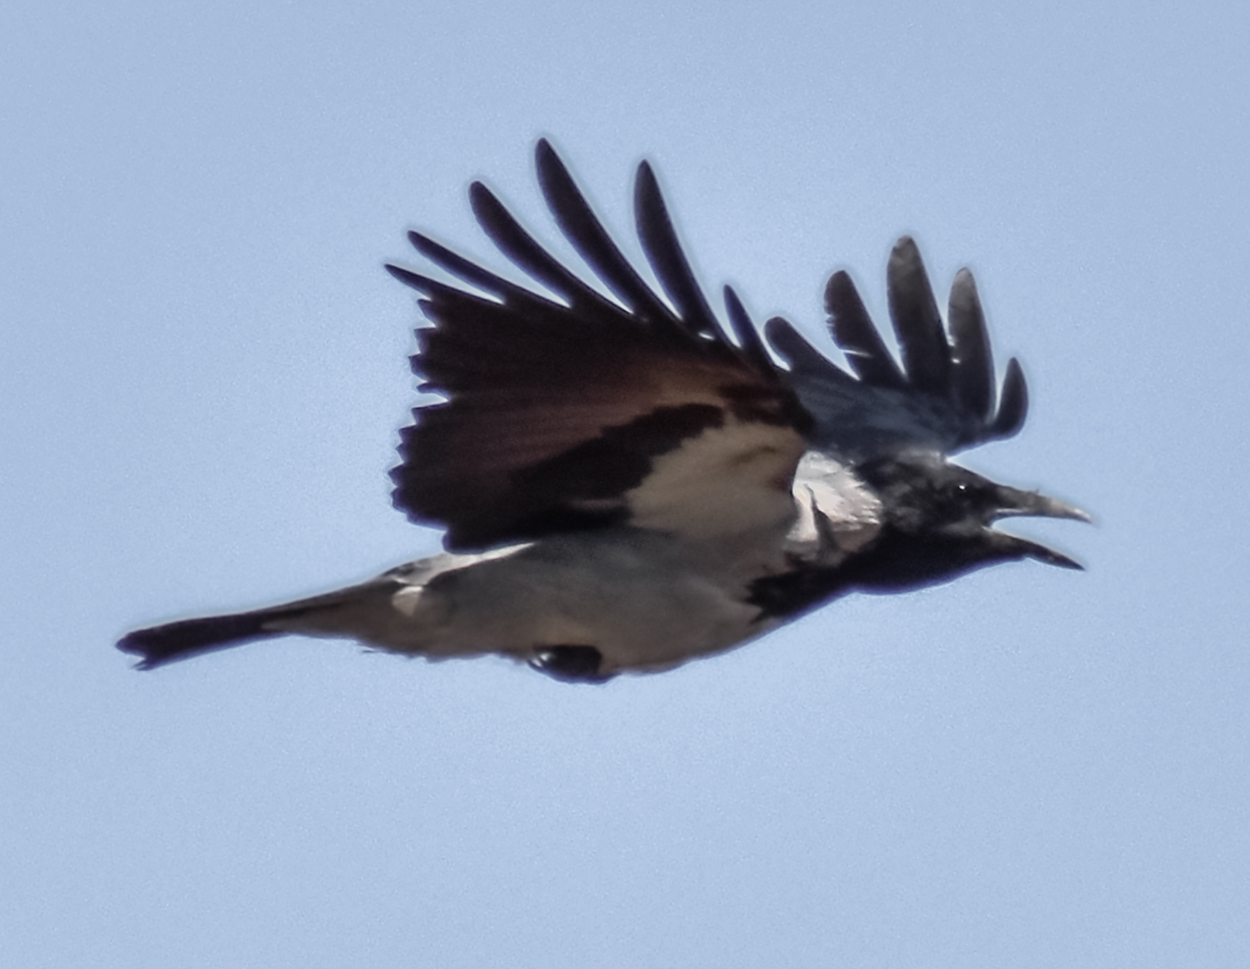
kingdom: Animalia
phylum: Chordata
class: Aves
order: Passeriformes
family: Corvidae
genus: Corvus
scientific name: Corvus cornix
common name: Hooded crow
